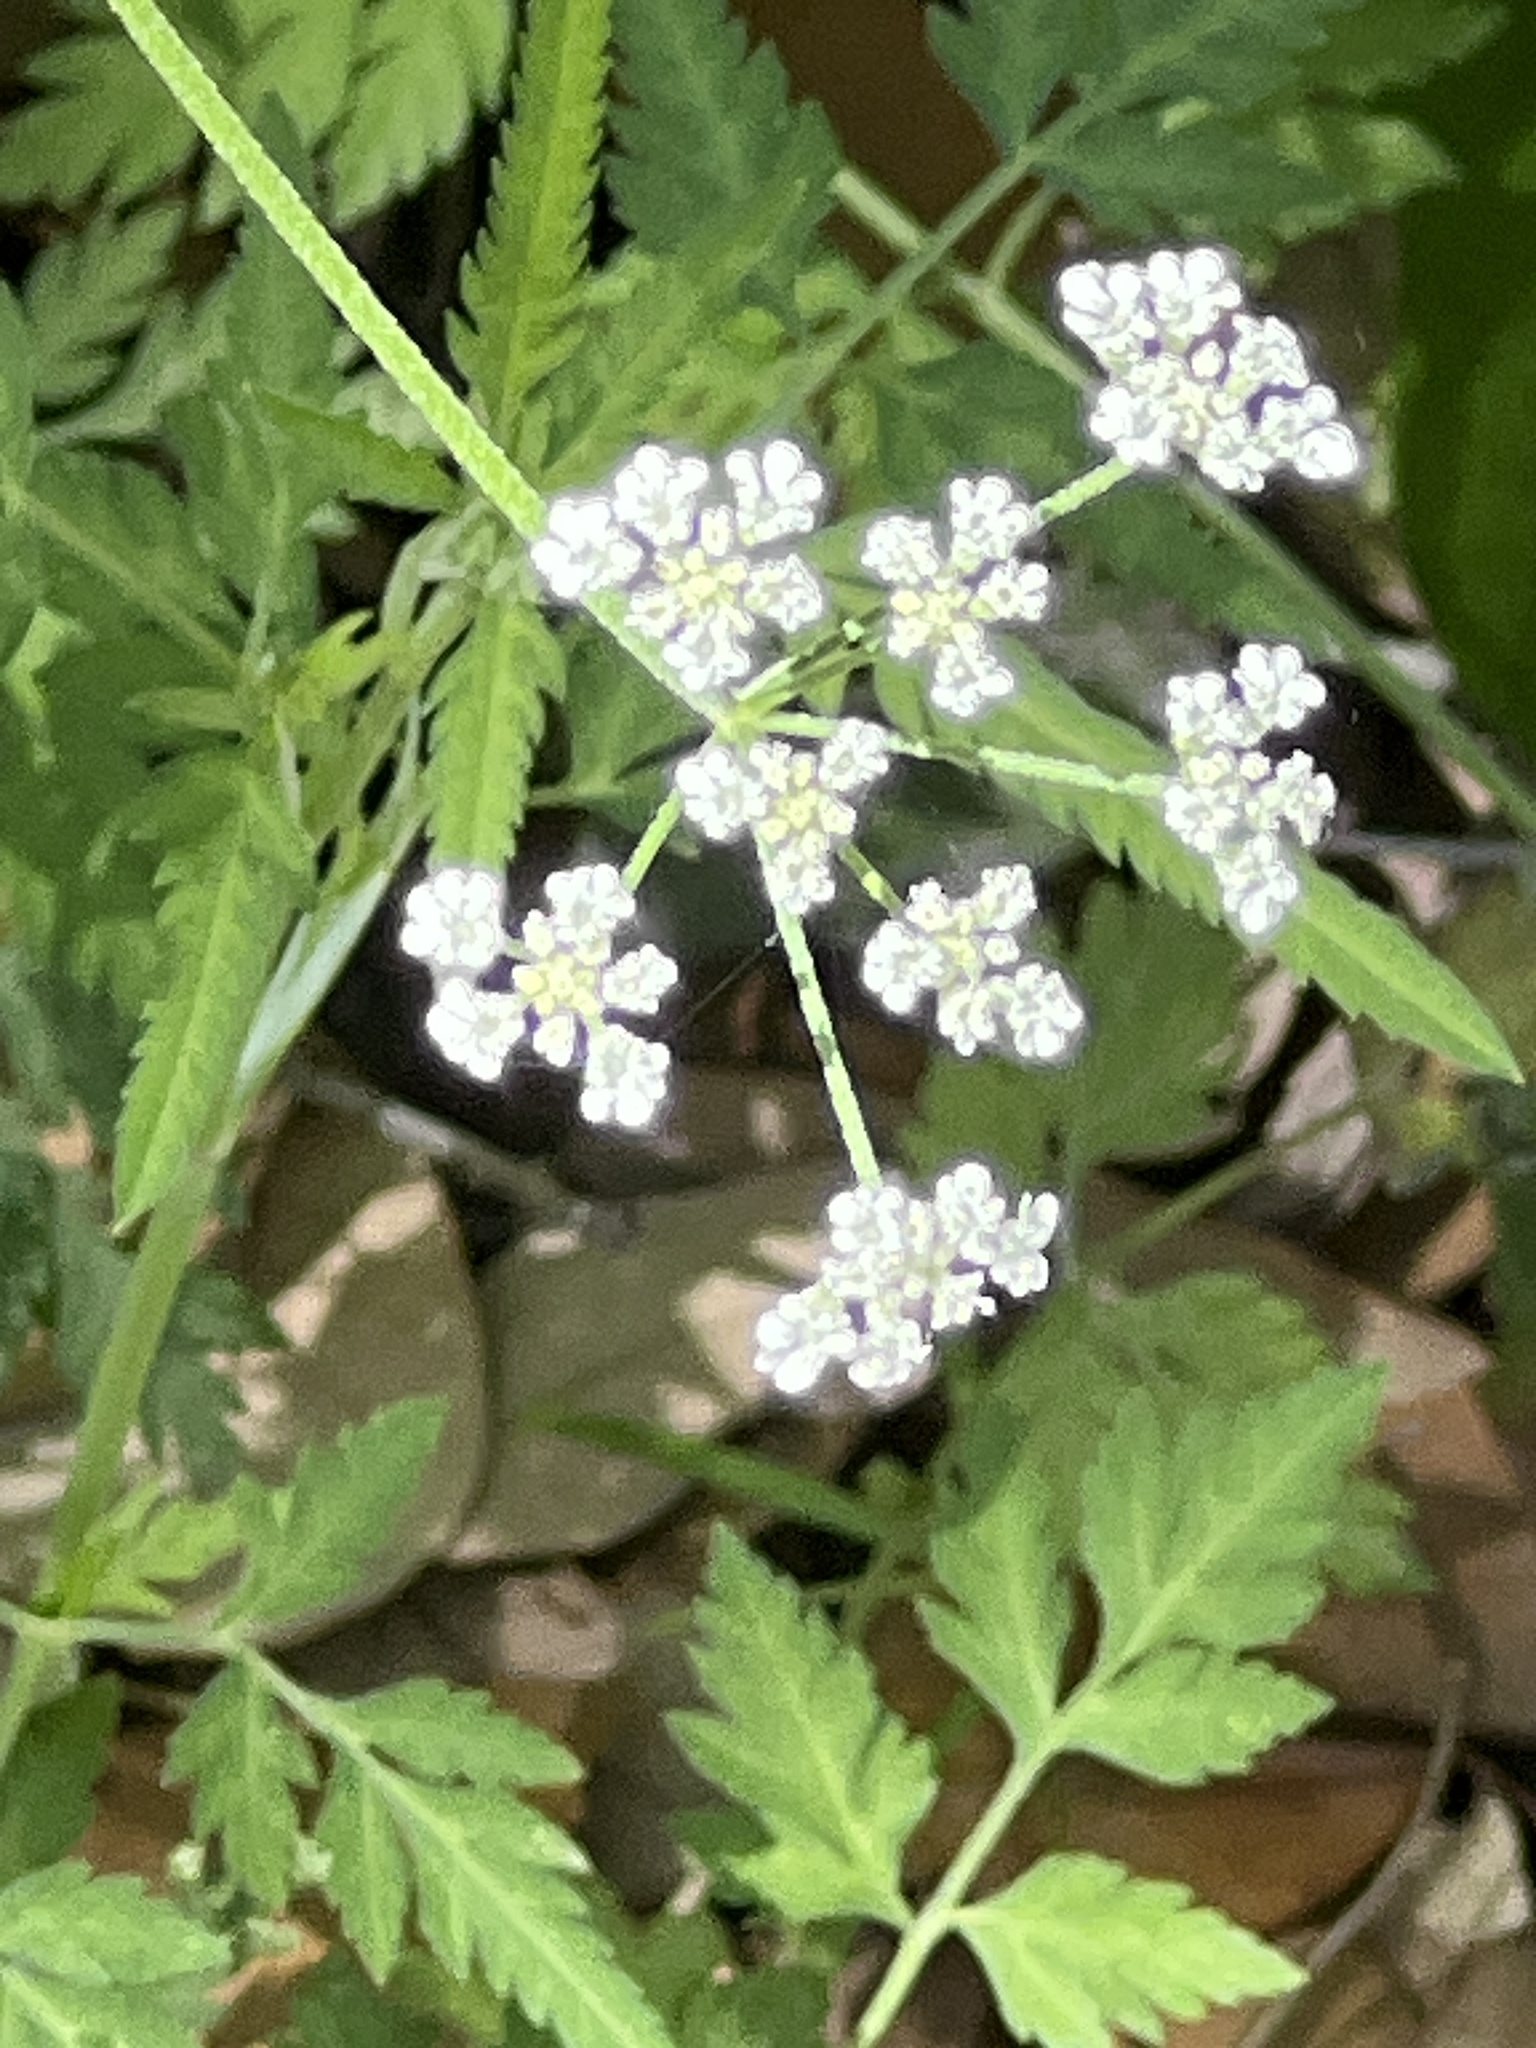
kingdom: Plantae
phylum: Tracheophyta
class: Magnoliopsida
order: Apiales
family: Apiaceae
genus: Torilis
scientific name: Torilis arvensis
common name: Spreading hedge-parsley
